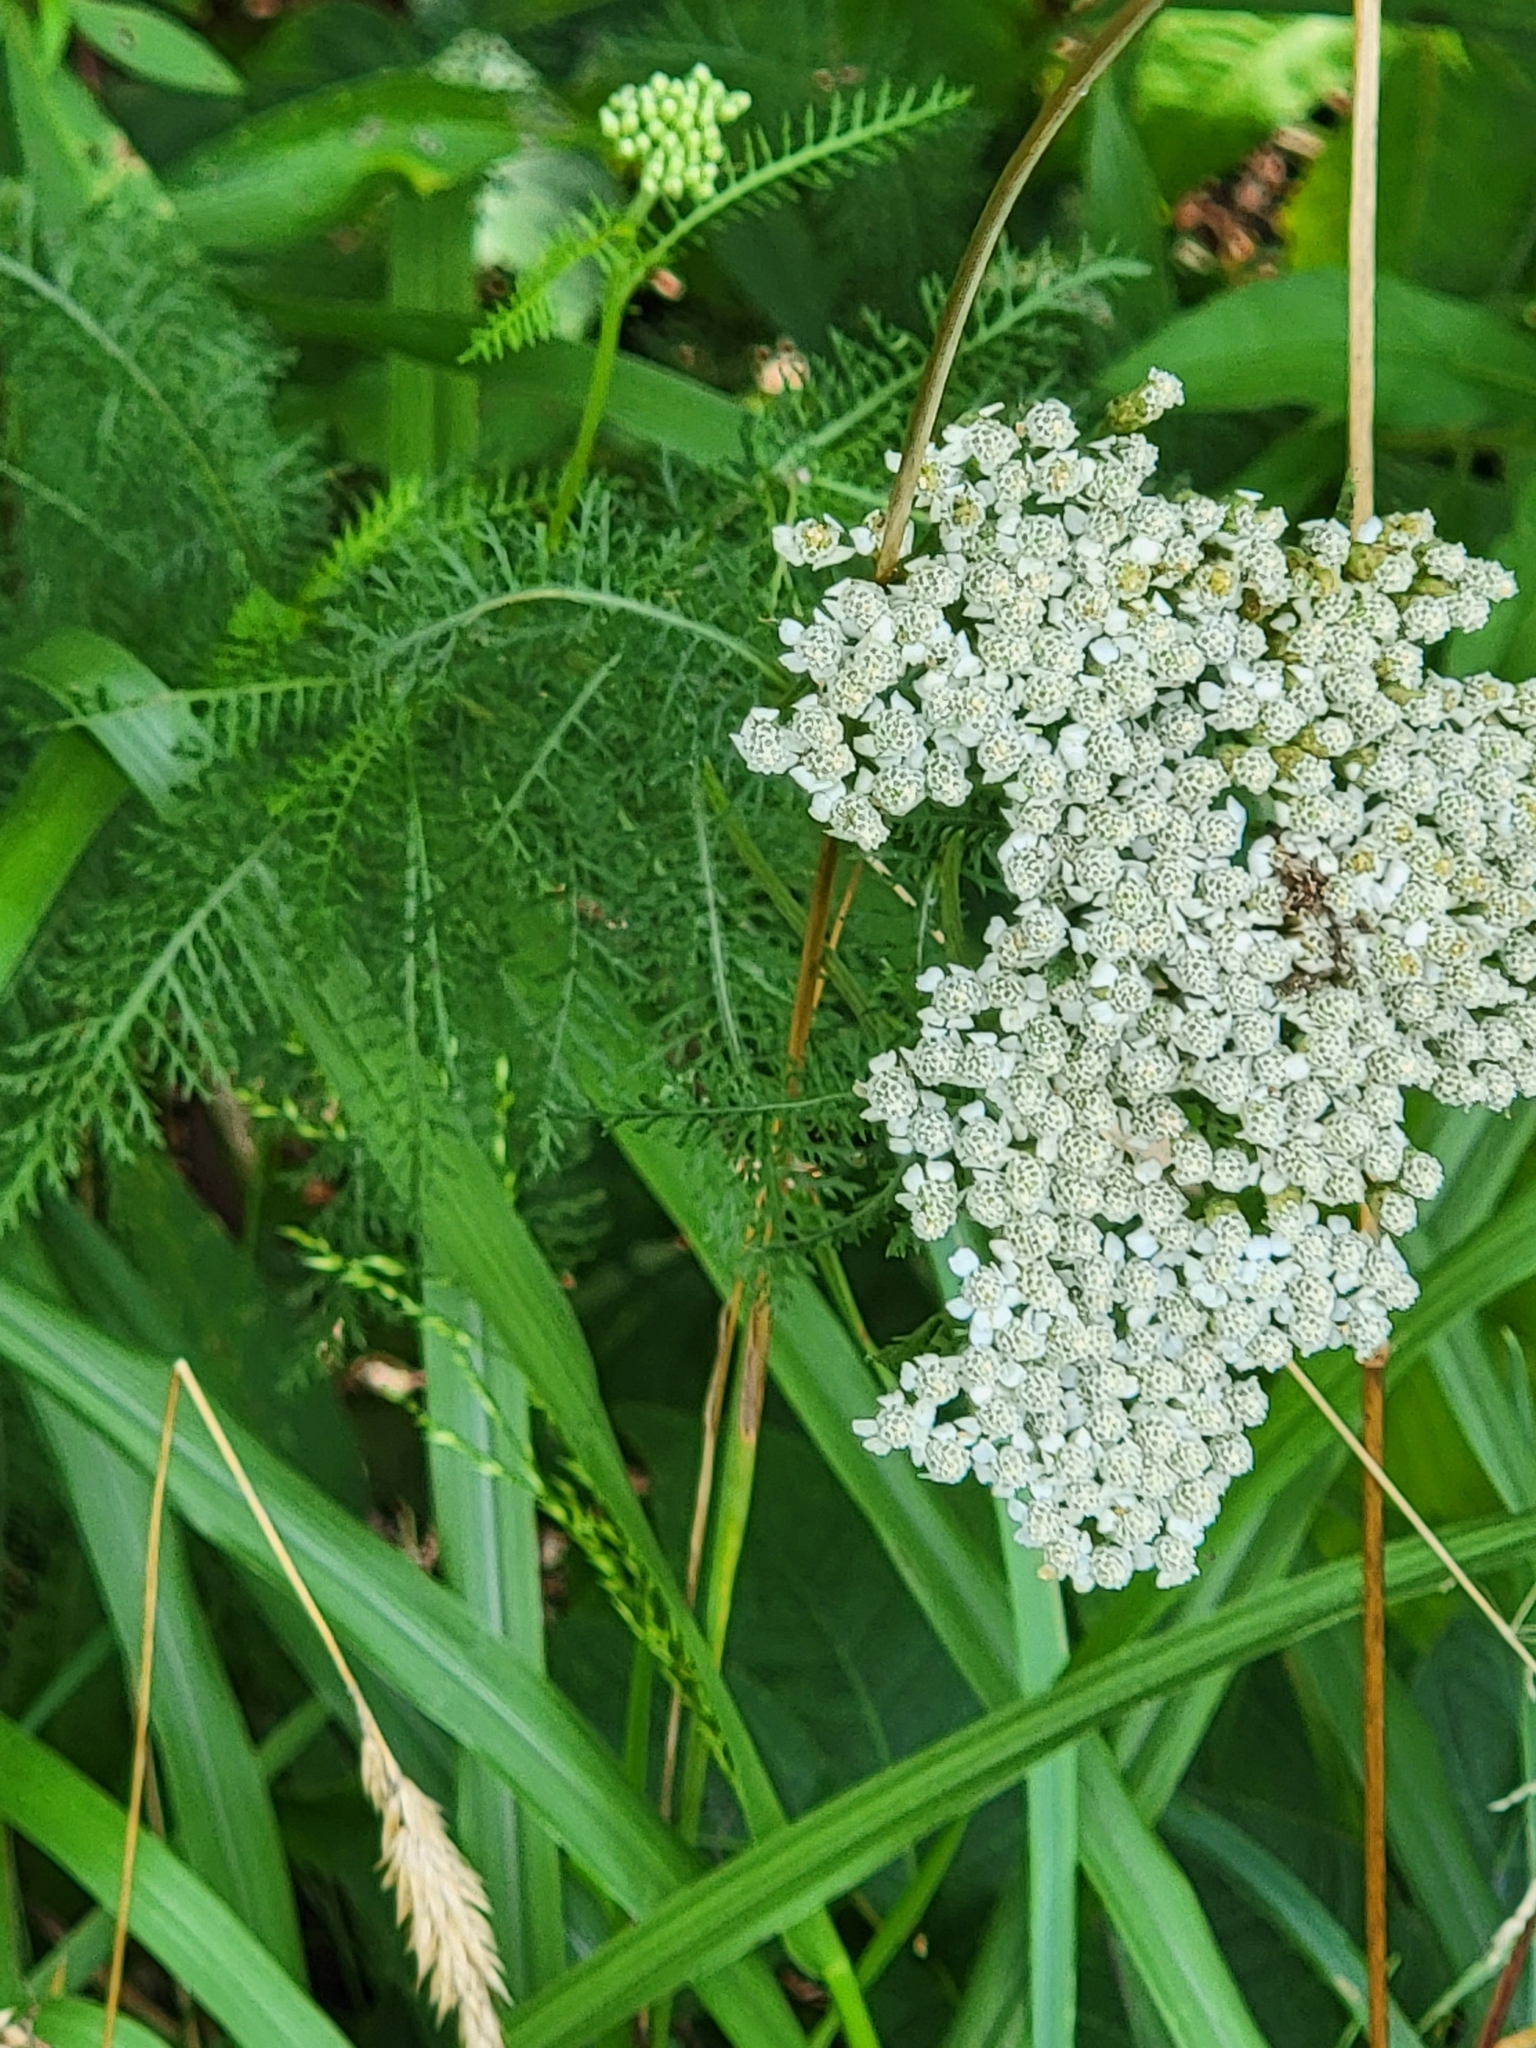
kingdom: Plantae
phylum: Tracheophyta
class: Magnoliopsida
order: Asterales
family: Asteraceae
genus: Achillea
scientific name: Achillea millefolium
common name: Yarrow
